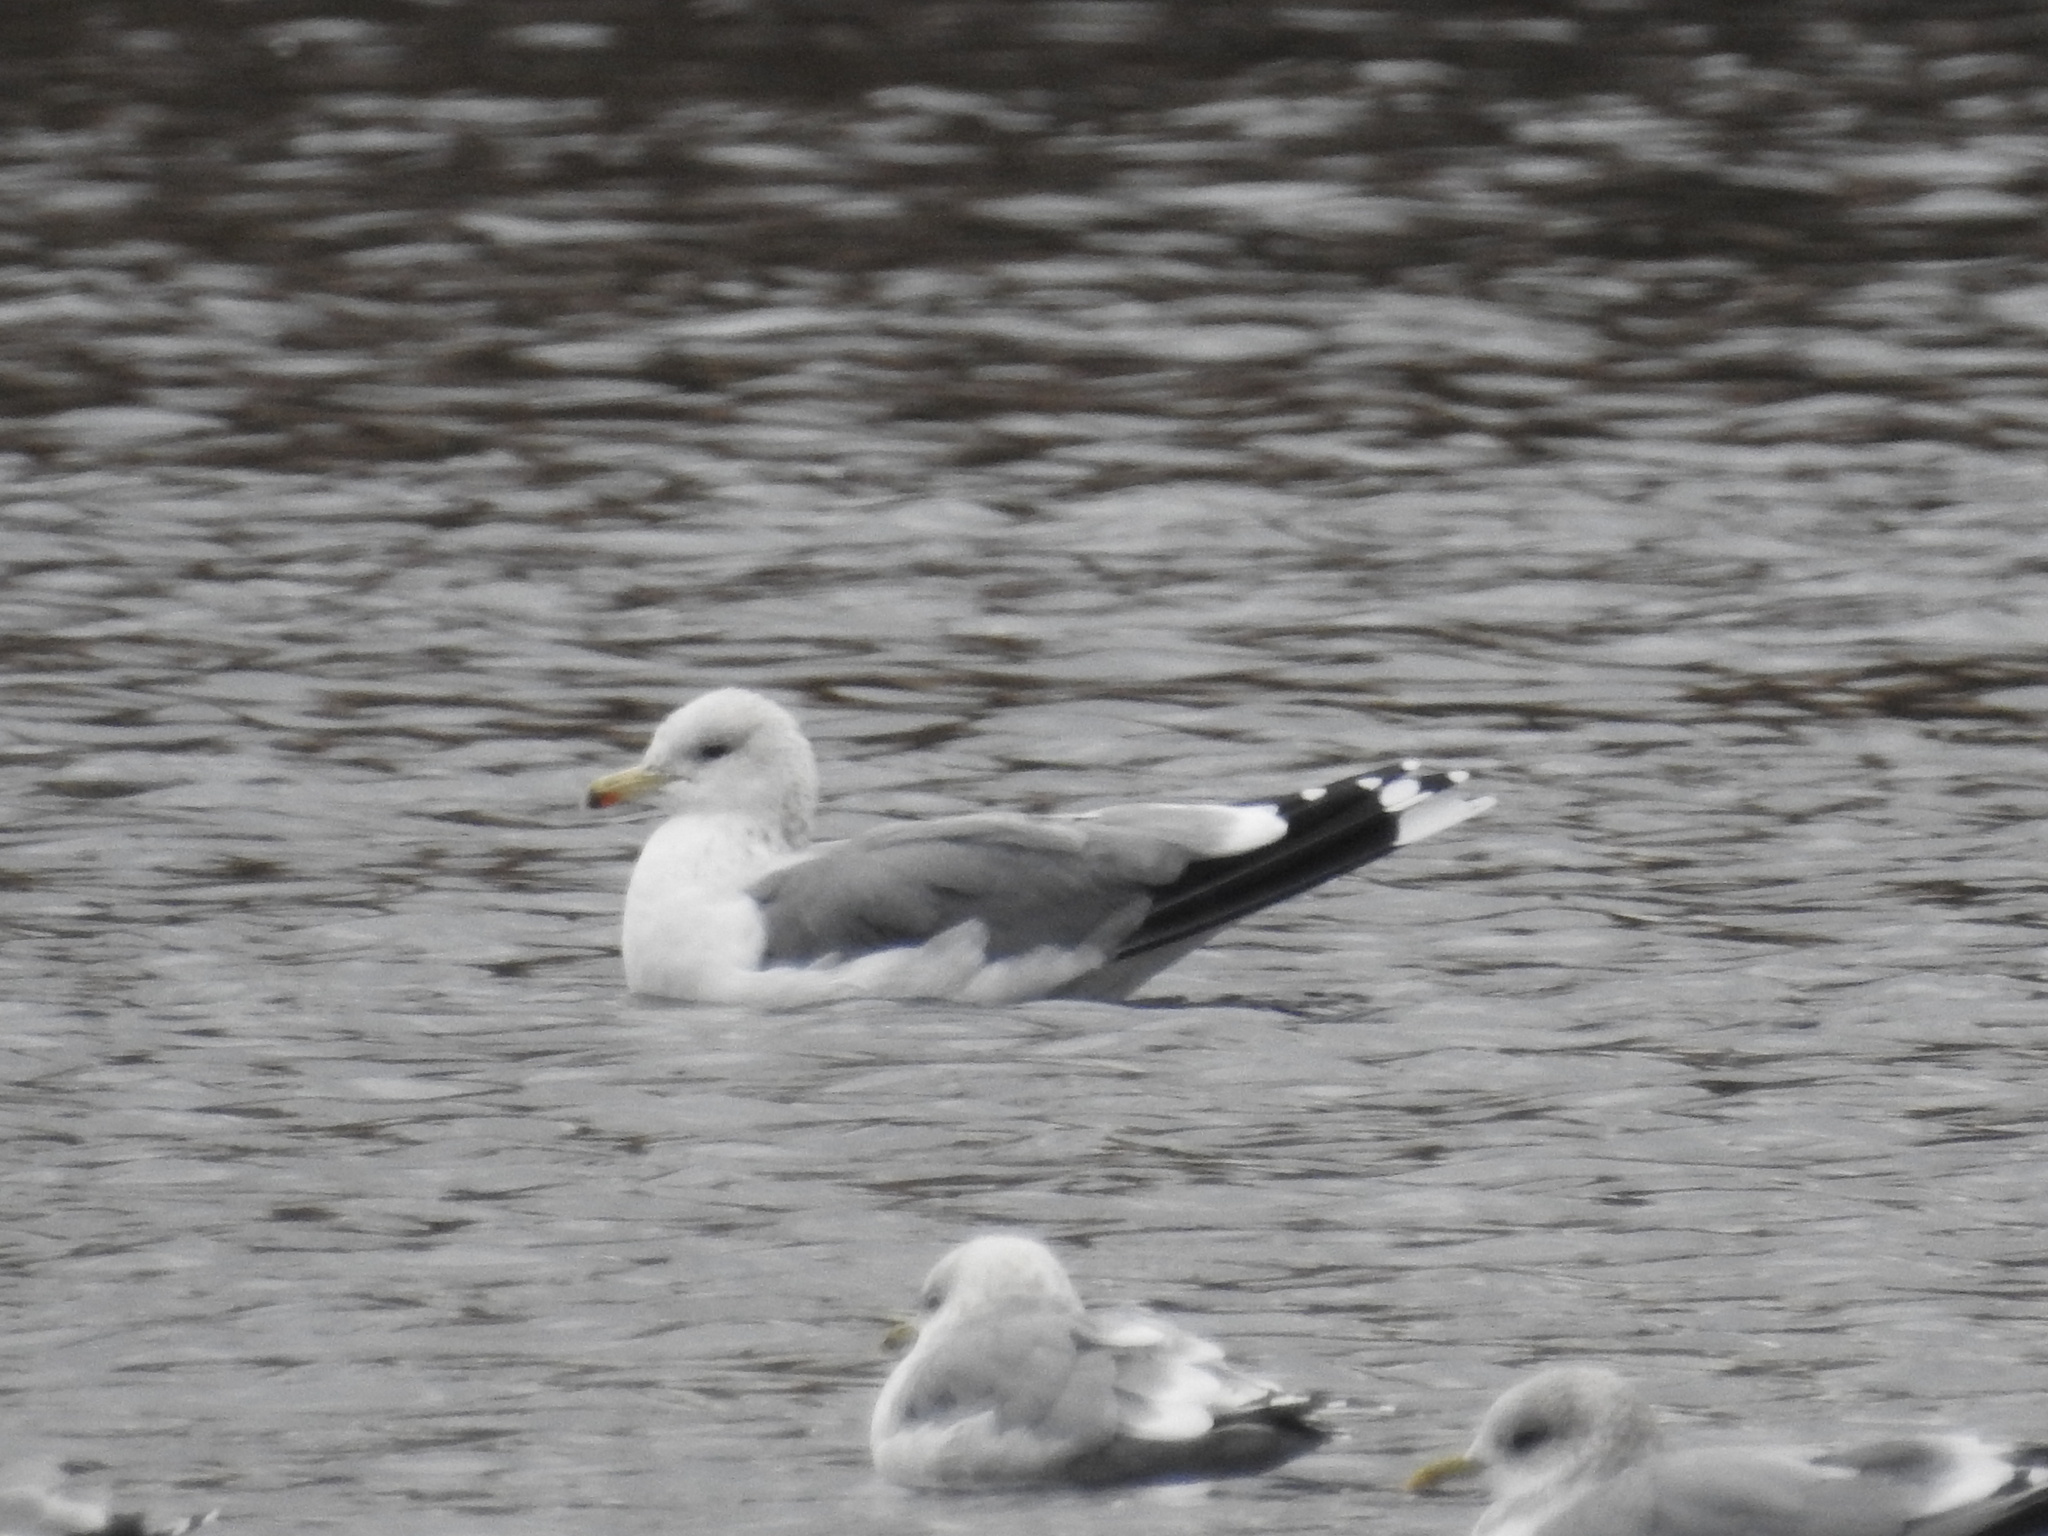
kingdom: Animalia
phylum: Chordata
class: Aves
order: Charadriiformes
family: Laridae
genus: Larus
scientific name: Larus californicus
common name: California gull
